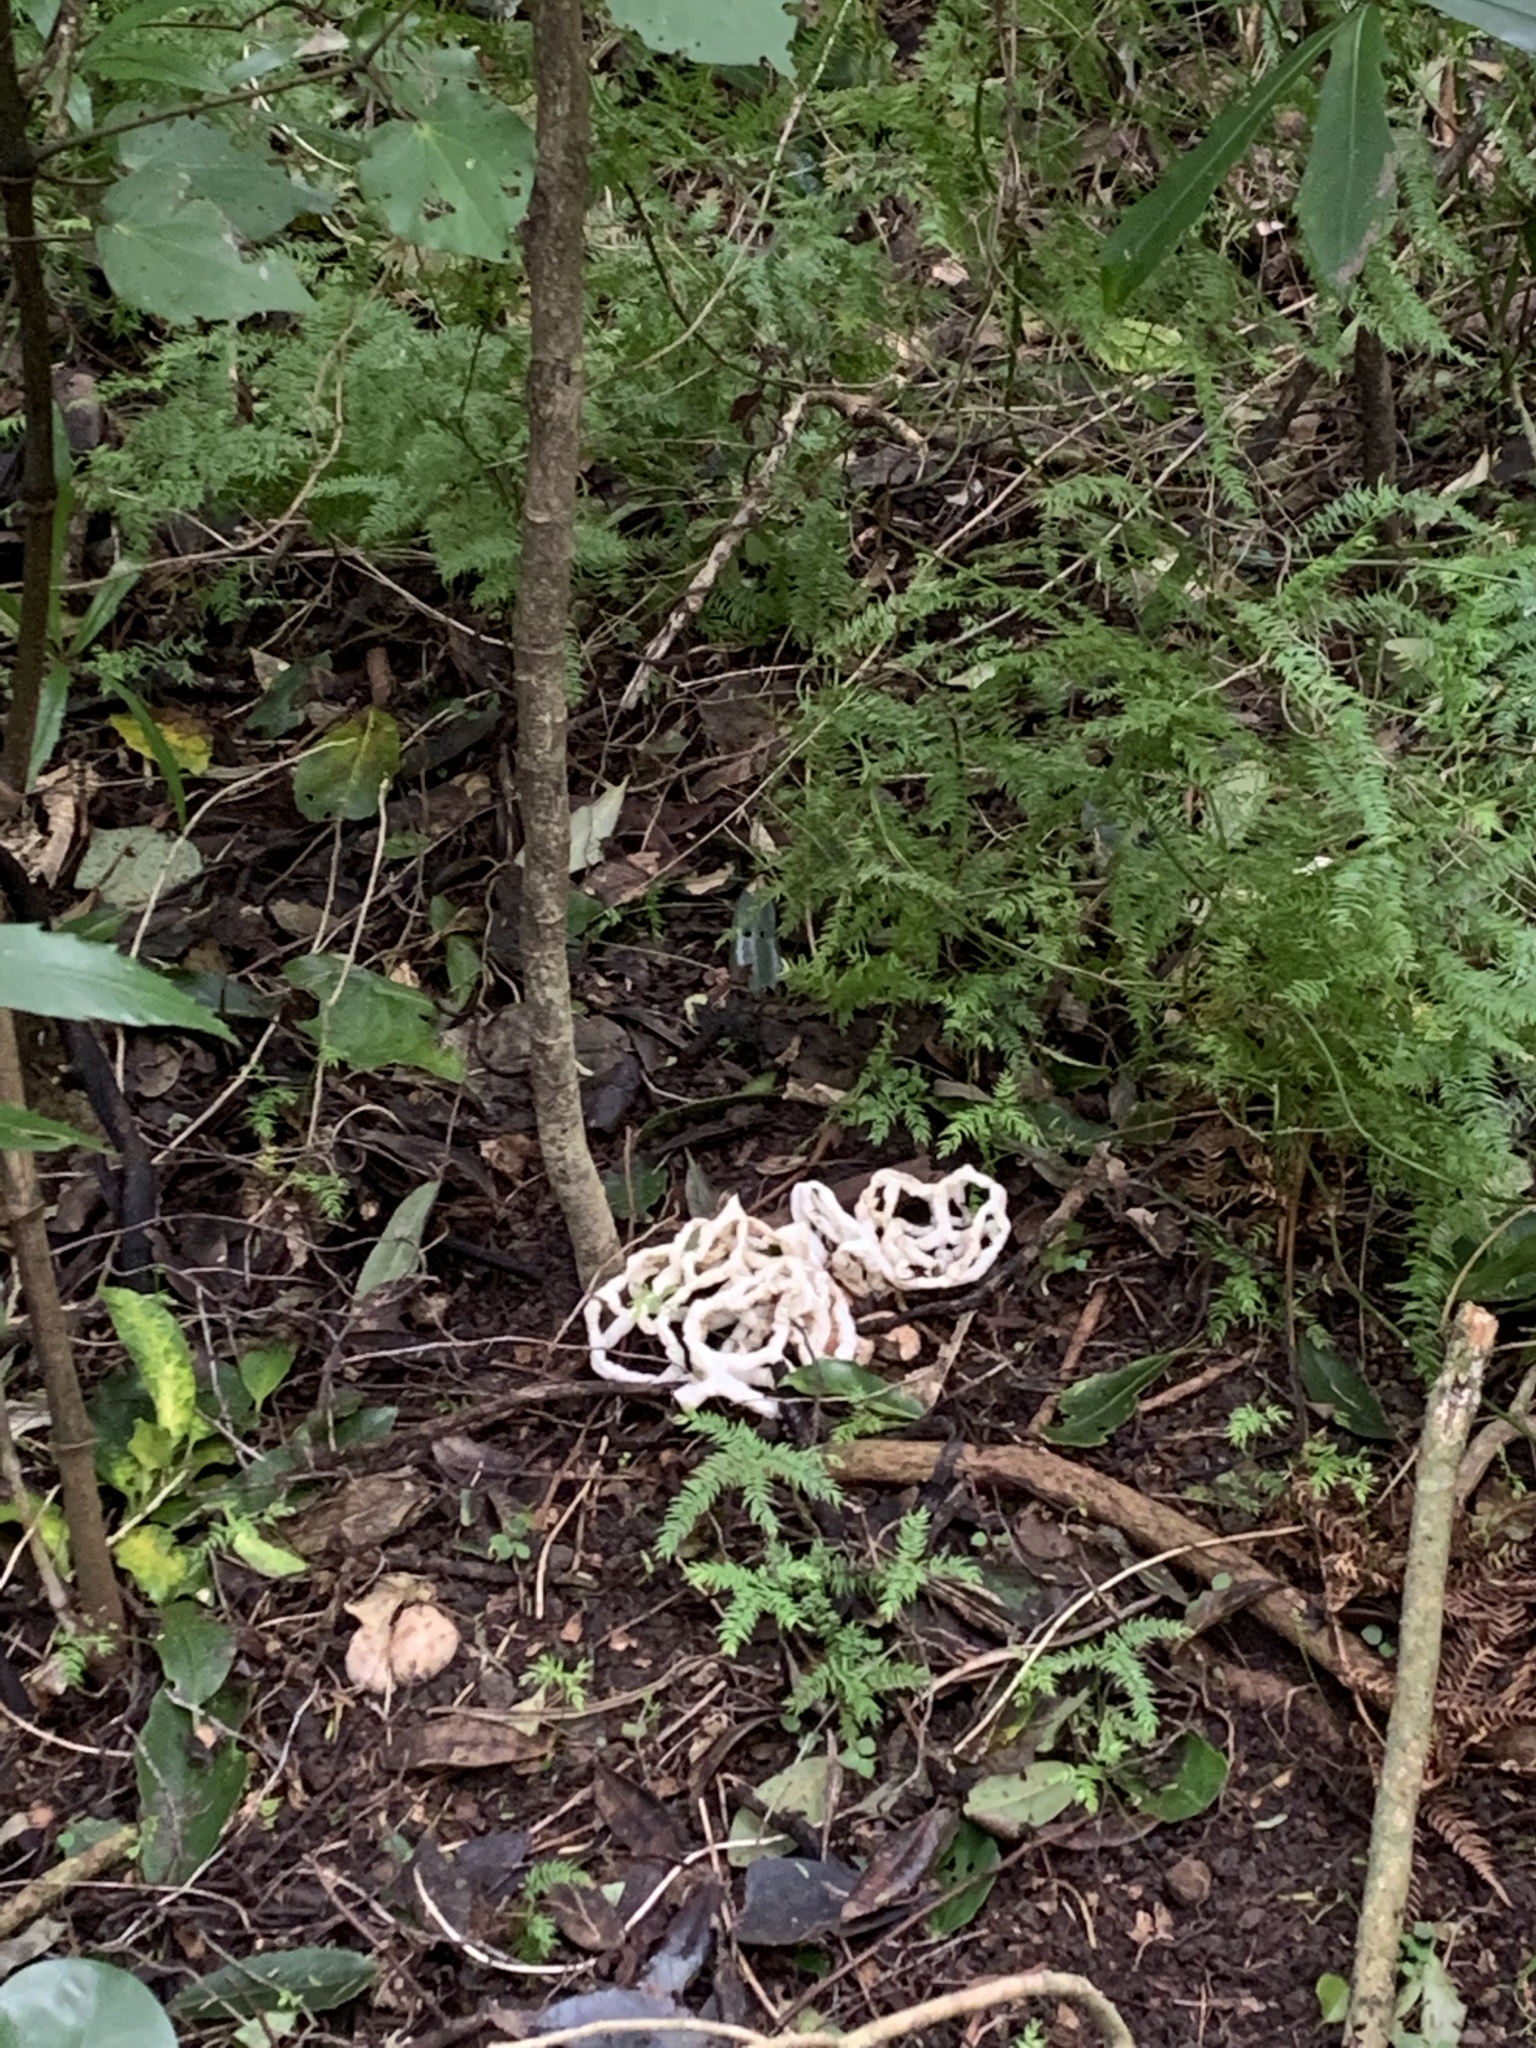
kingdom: Fungi
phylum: Basidiomycota
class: Agaricomycetes
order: Phallales
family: Phallaceae
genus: Ileodictyon
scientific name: Ileodictyon cibarium
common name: Basket fungus
